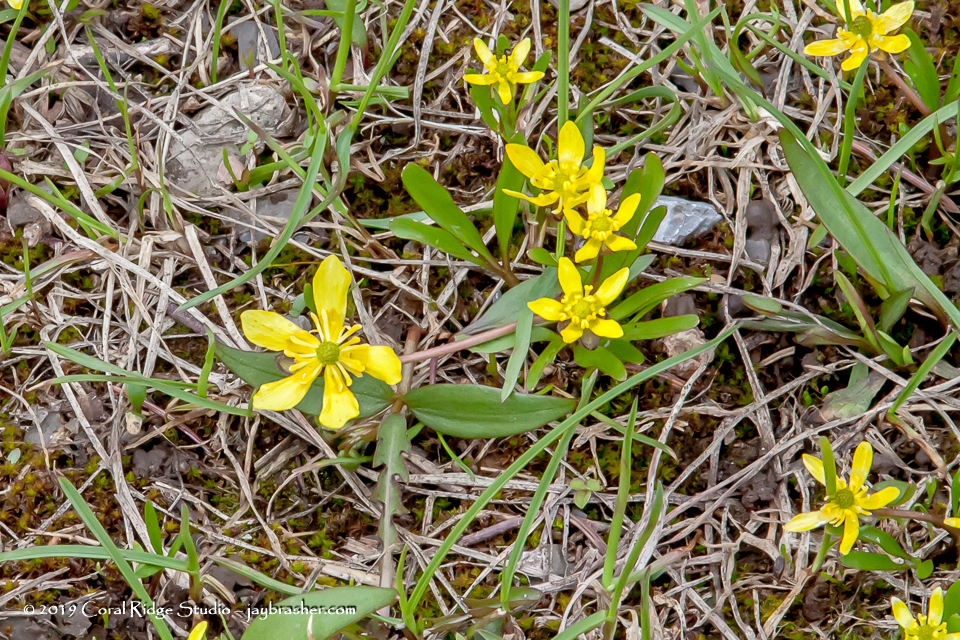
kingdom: Plantae
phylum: Tracheophyta
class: Magnoliopsida
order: Ranunculales
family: Ranunculaceae
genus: Ranunculus
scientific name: Ranunculus digitatus
